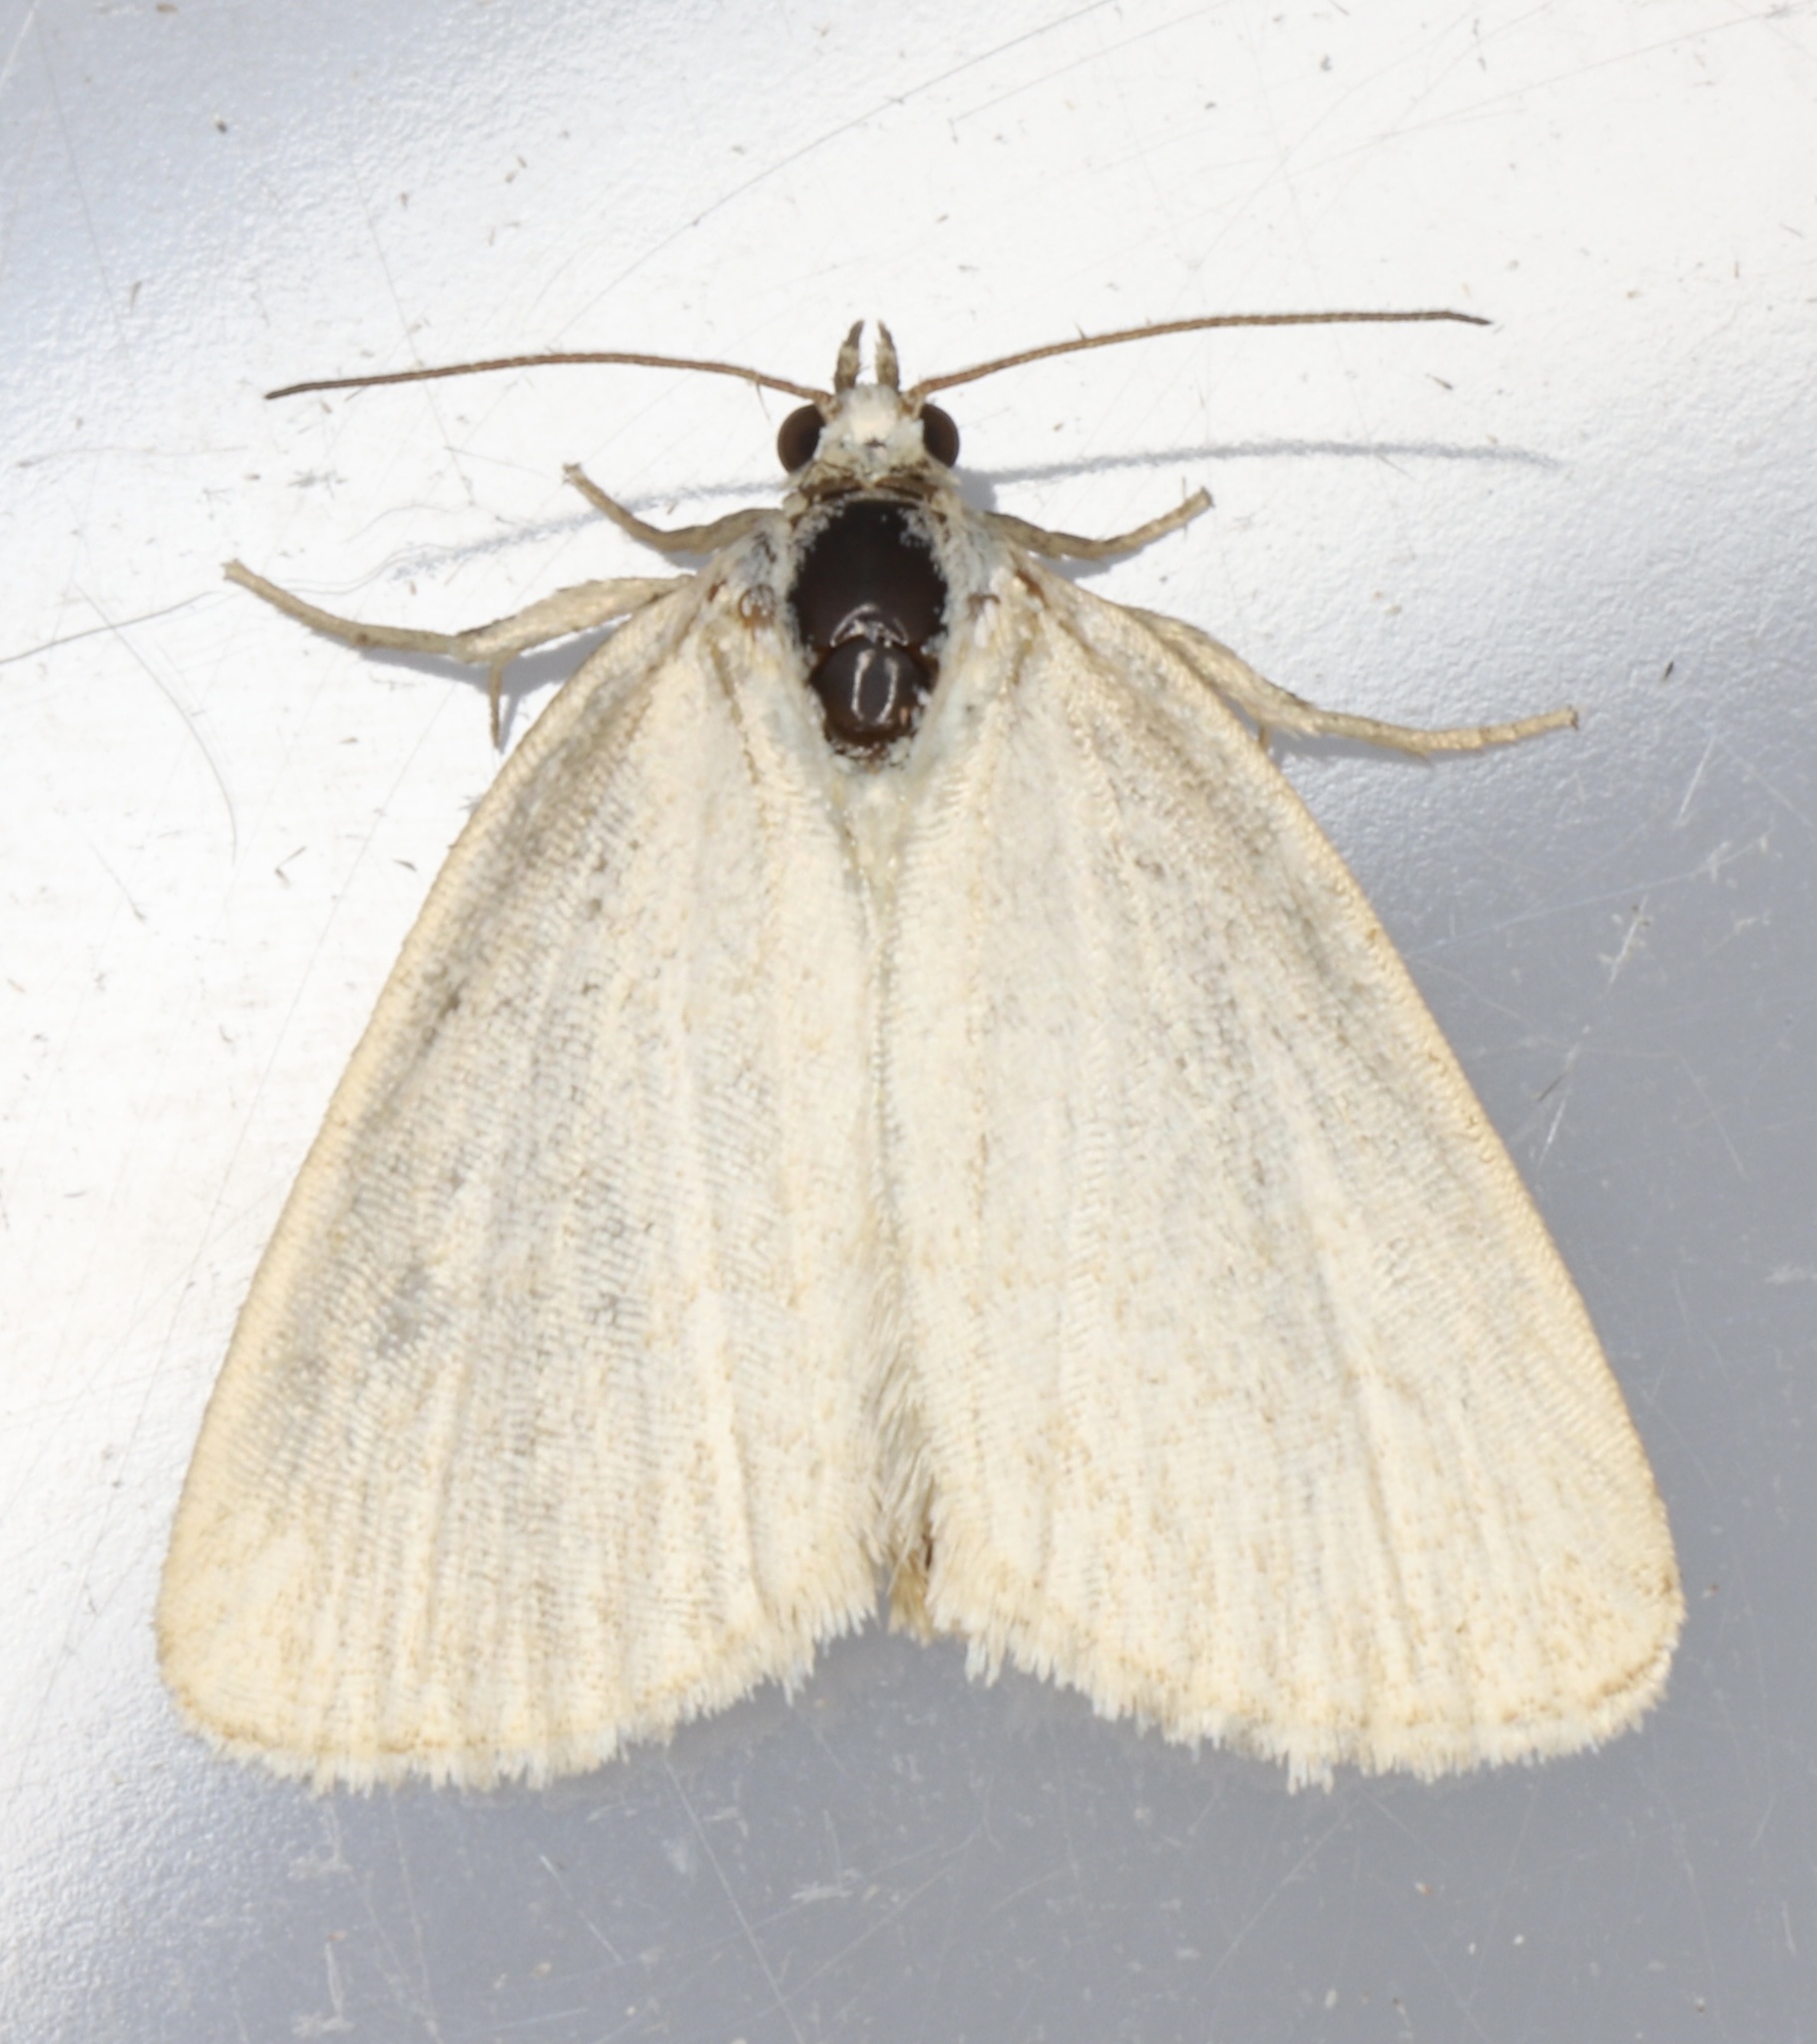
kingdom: Animalia
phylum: Arthropoda
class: Insecta
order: Lepidoptera
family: Noctuidae
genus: Protodeltote
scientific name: Protodeltote albidula
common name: Pale glyph
